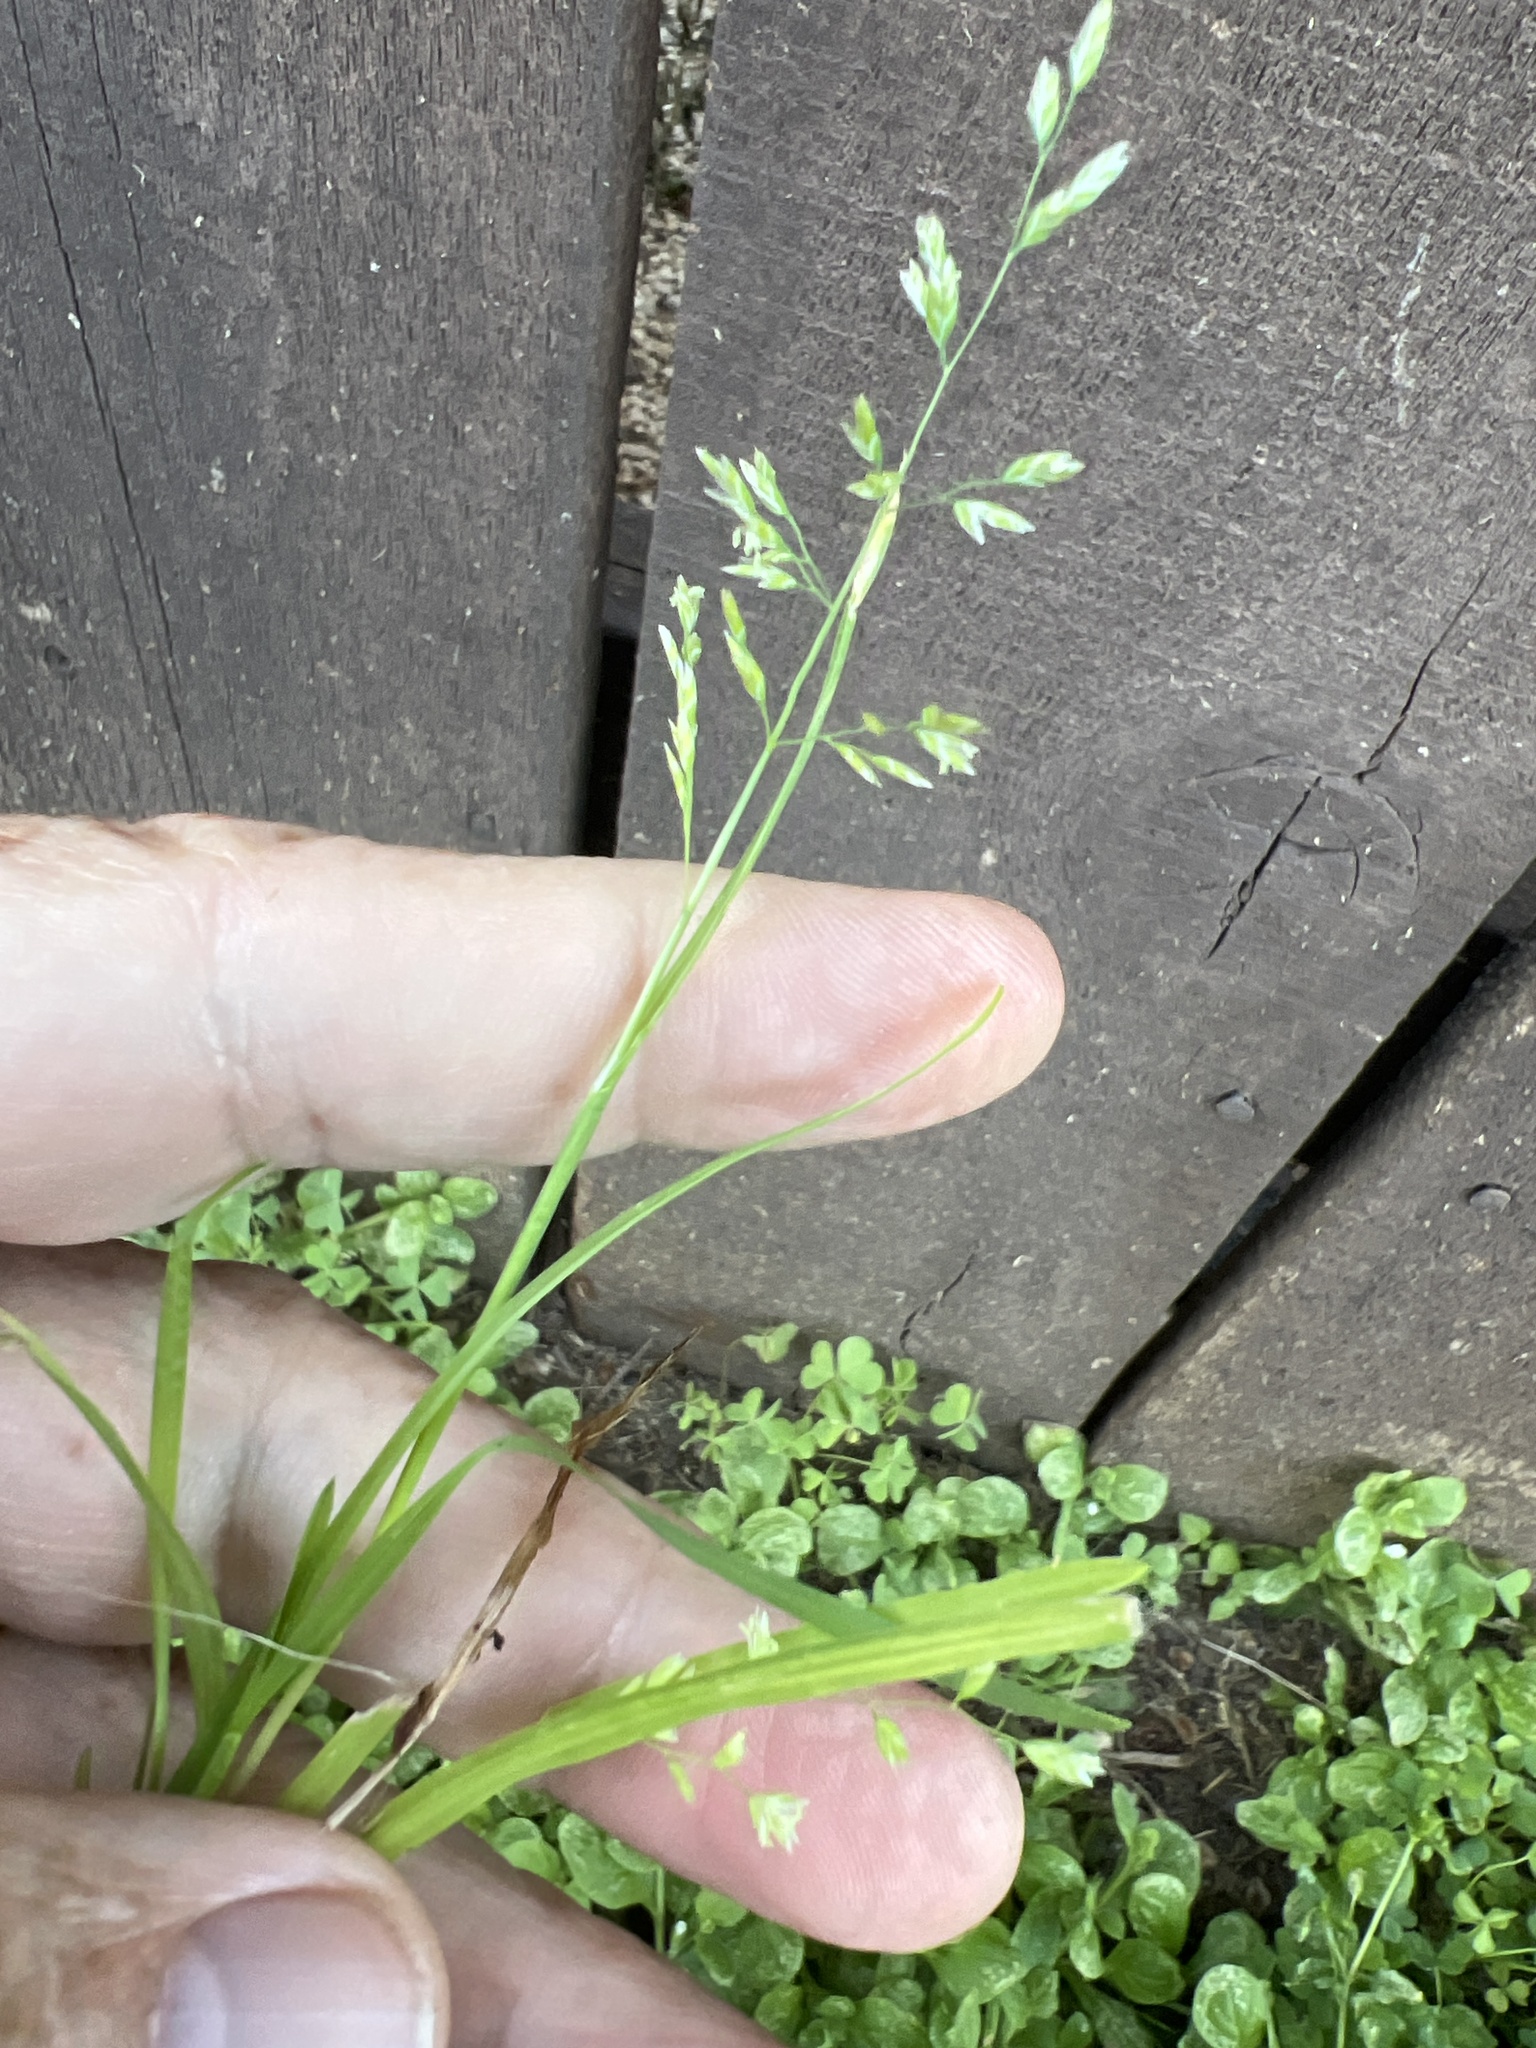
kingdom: Plantae
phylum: Tracheophyta
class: Liliopsida
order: Poales
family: Poaceae
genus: Poa
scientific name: Poa annua
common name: Annual bluegrass
